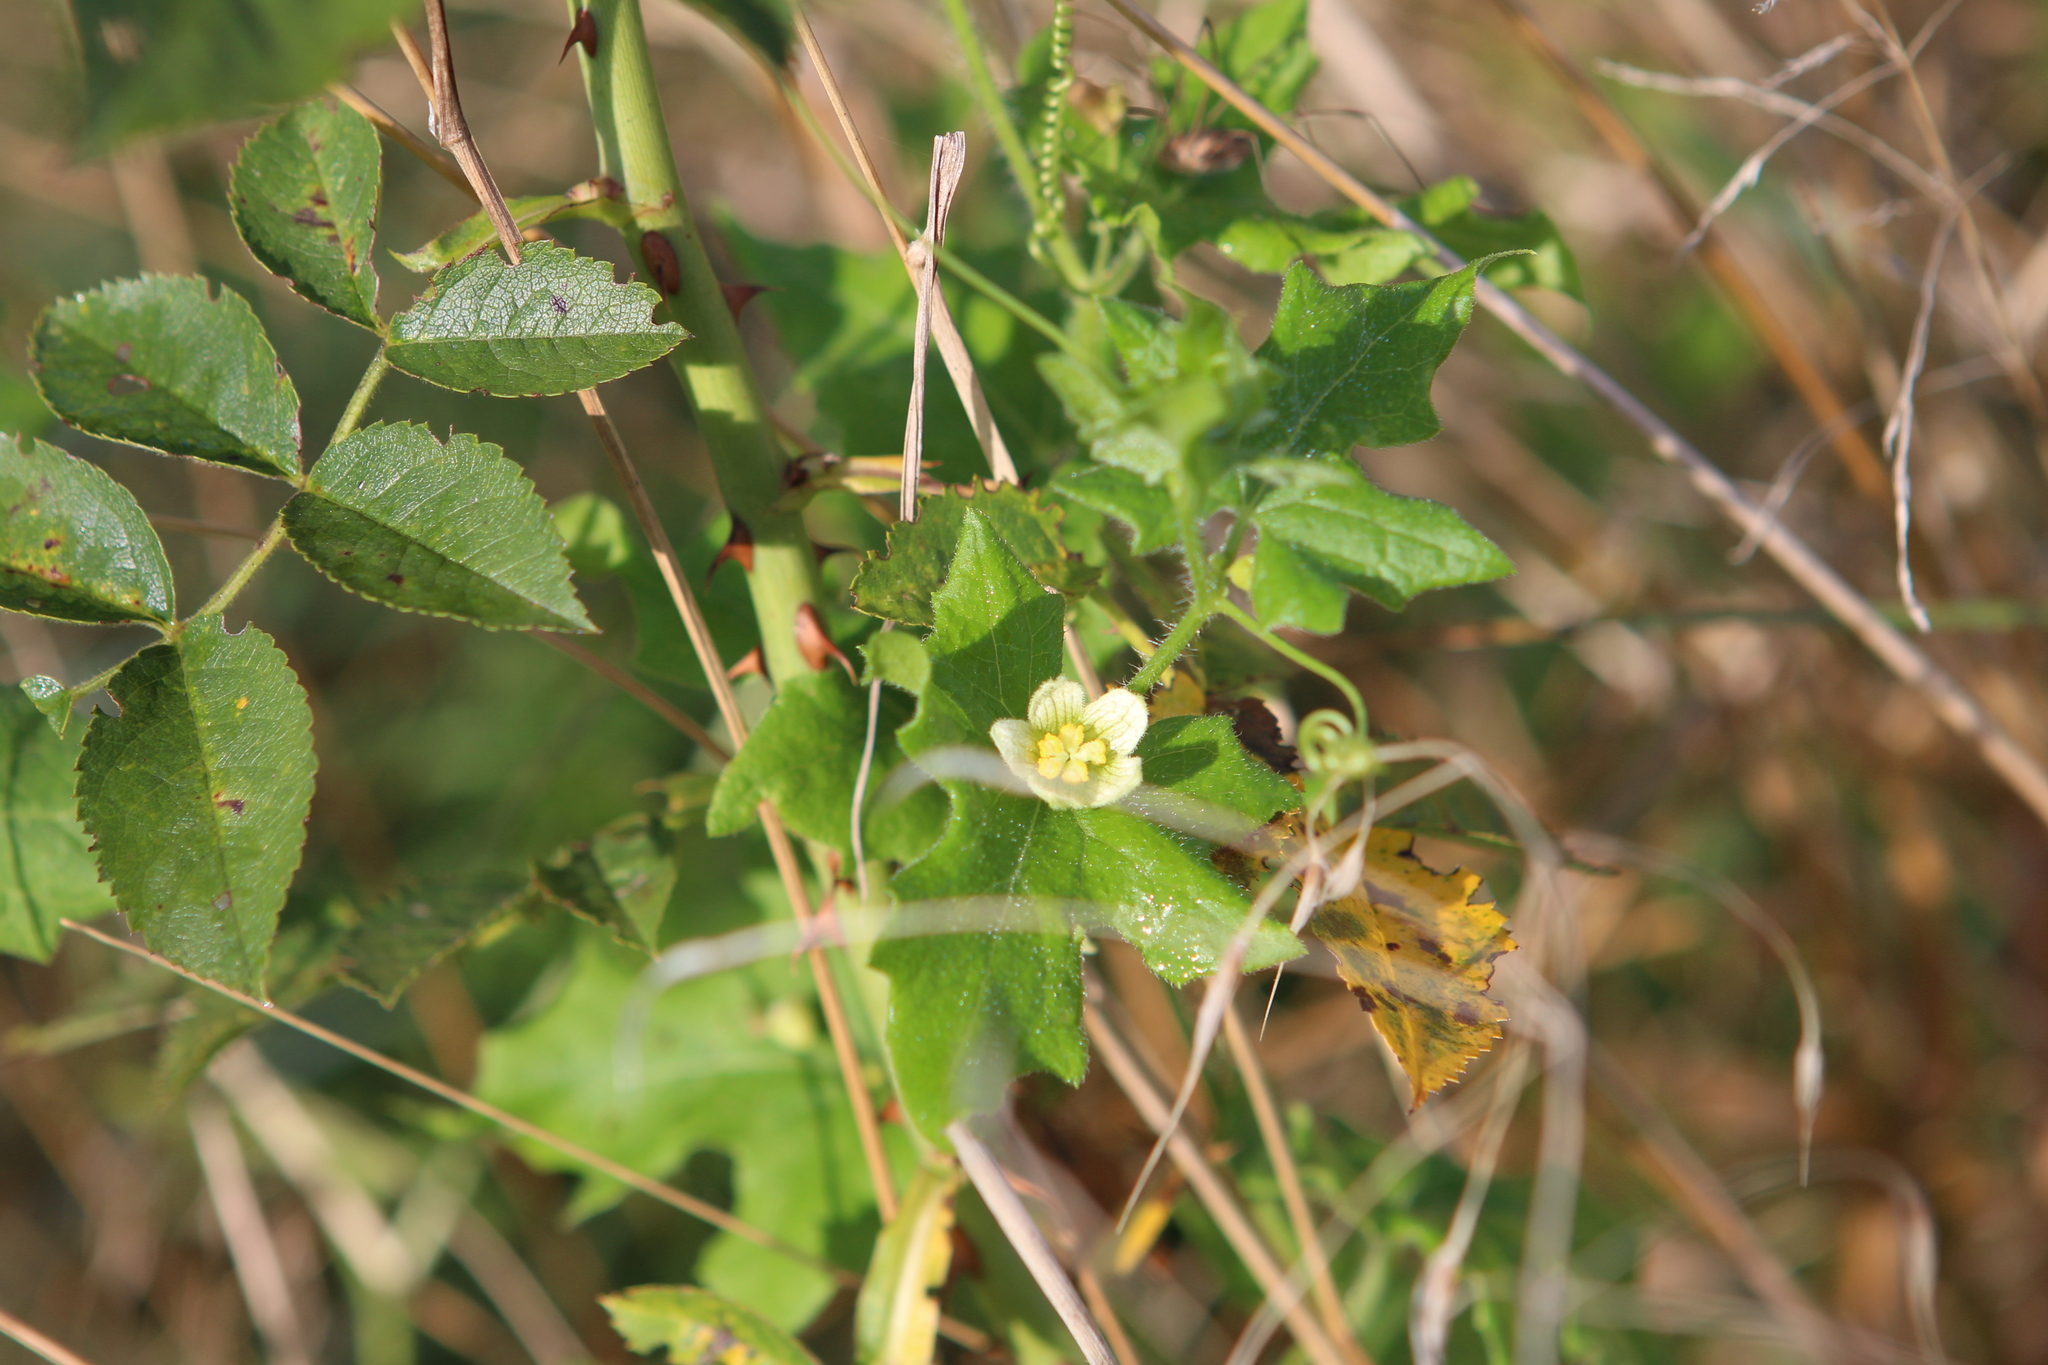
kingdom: Plantae
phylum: Tracheophyta
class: Magnoliopsida
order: Cucurbitales
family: Cucurbitaceae
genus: Bryonia
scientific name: Bryonia dioica
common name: White bryony
